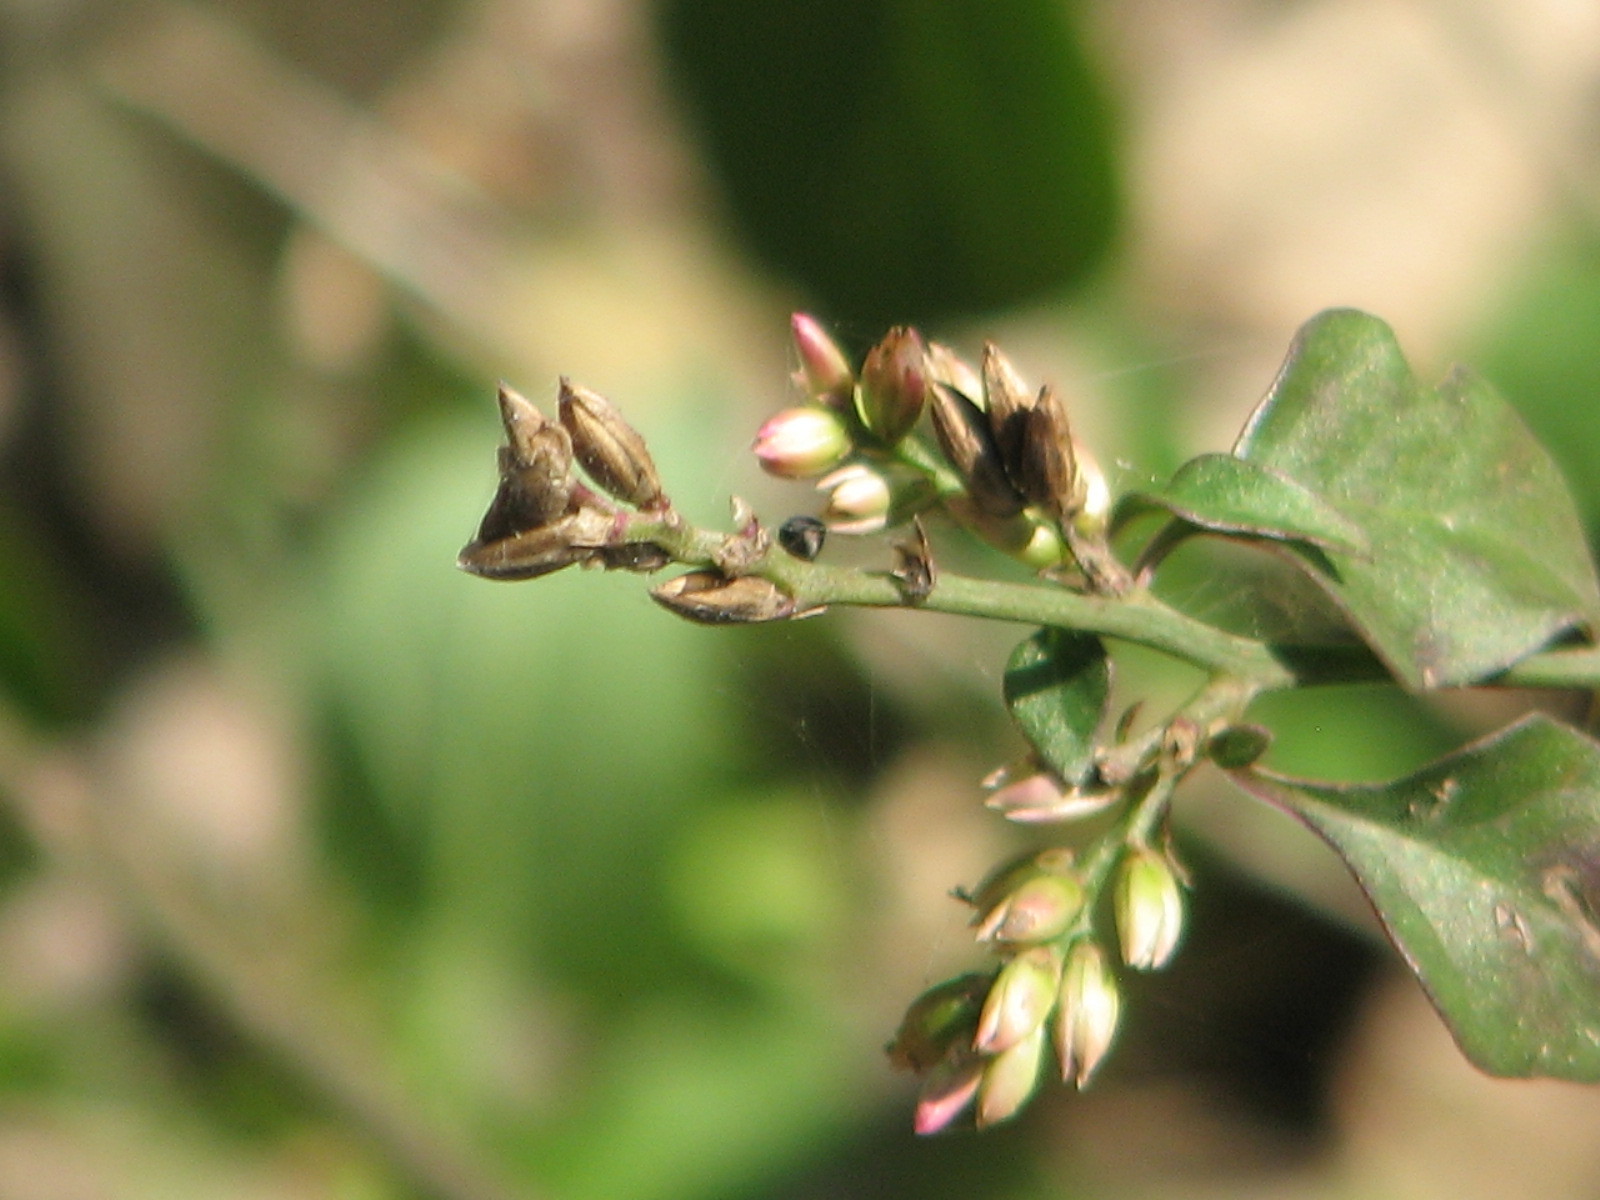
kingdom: Plantae
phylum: Tracheophyta
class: Magnoliopsida
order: Caryophyllales
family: Amaranthaceae
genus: Celosia
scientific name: Celosia nitida
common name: West indian cock's comb
